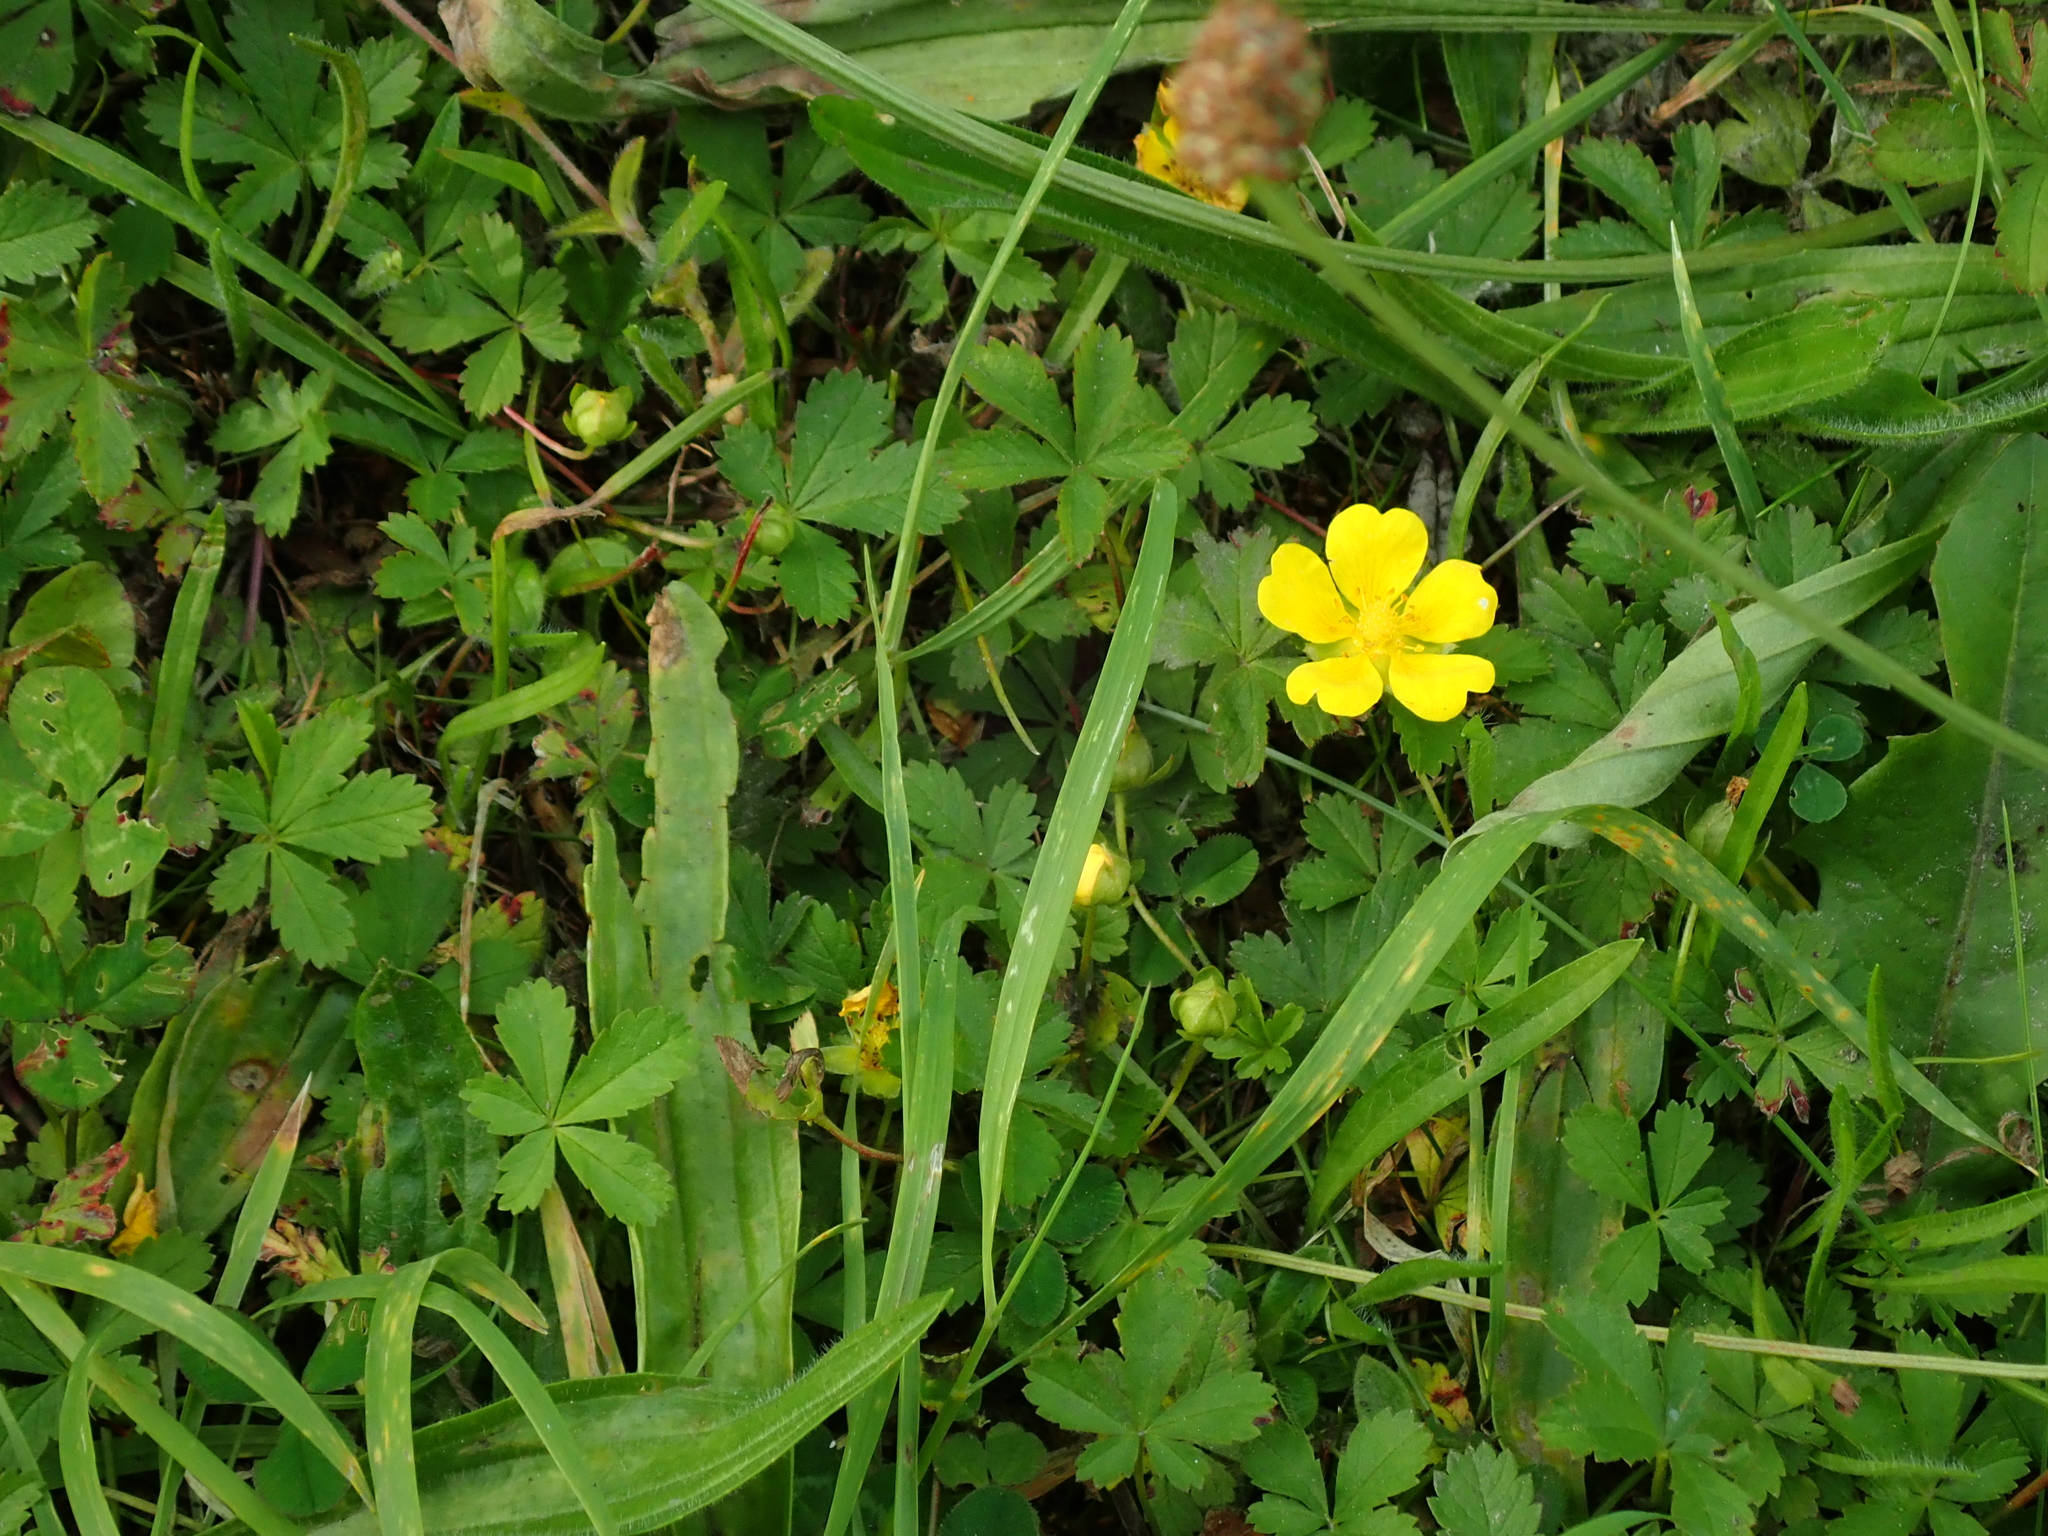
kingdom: Plantae
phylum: Tracheophyta
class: Magnoliopsida
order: Rosales
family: Rosaceae
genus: Potentilla
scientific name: Potentilla reptans
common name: Creeping cinquefoil
